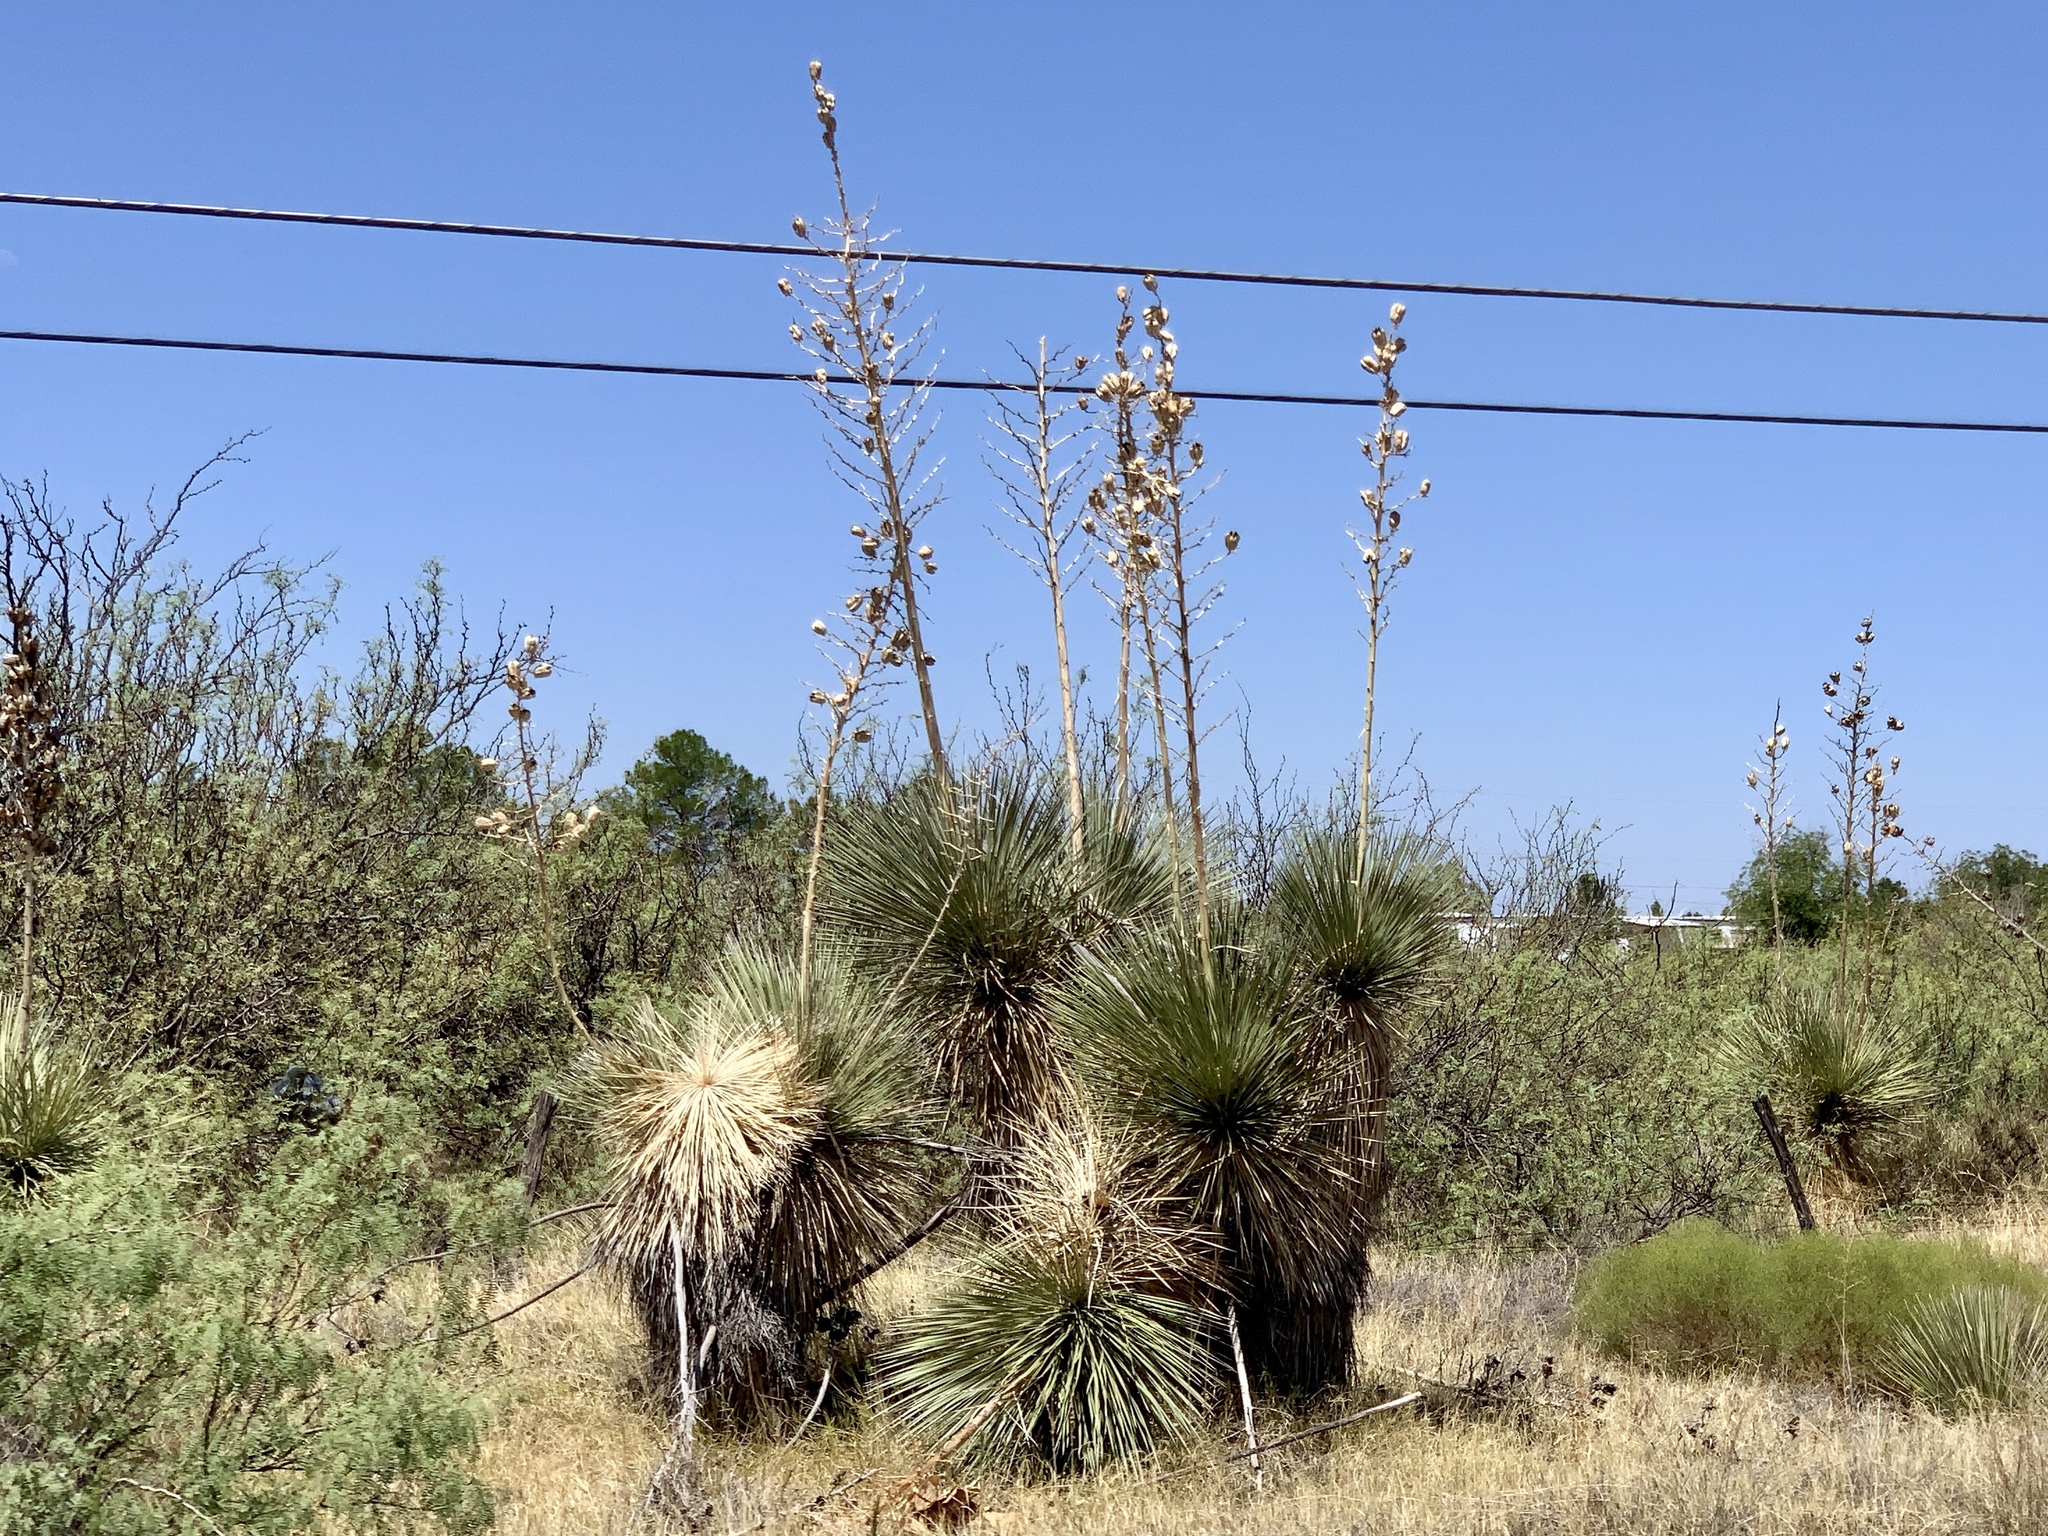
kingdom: Plantae
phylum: Tracheophyta
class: Liliopsida
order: Asparagales
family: Asparagaceae
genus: Yucca
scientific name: Yucca elata
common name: Palmella
